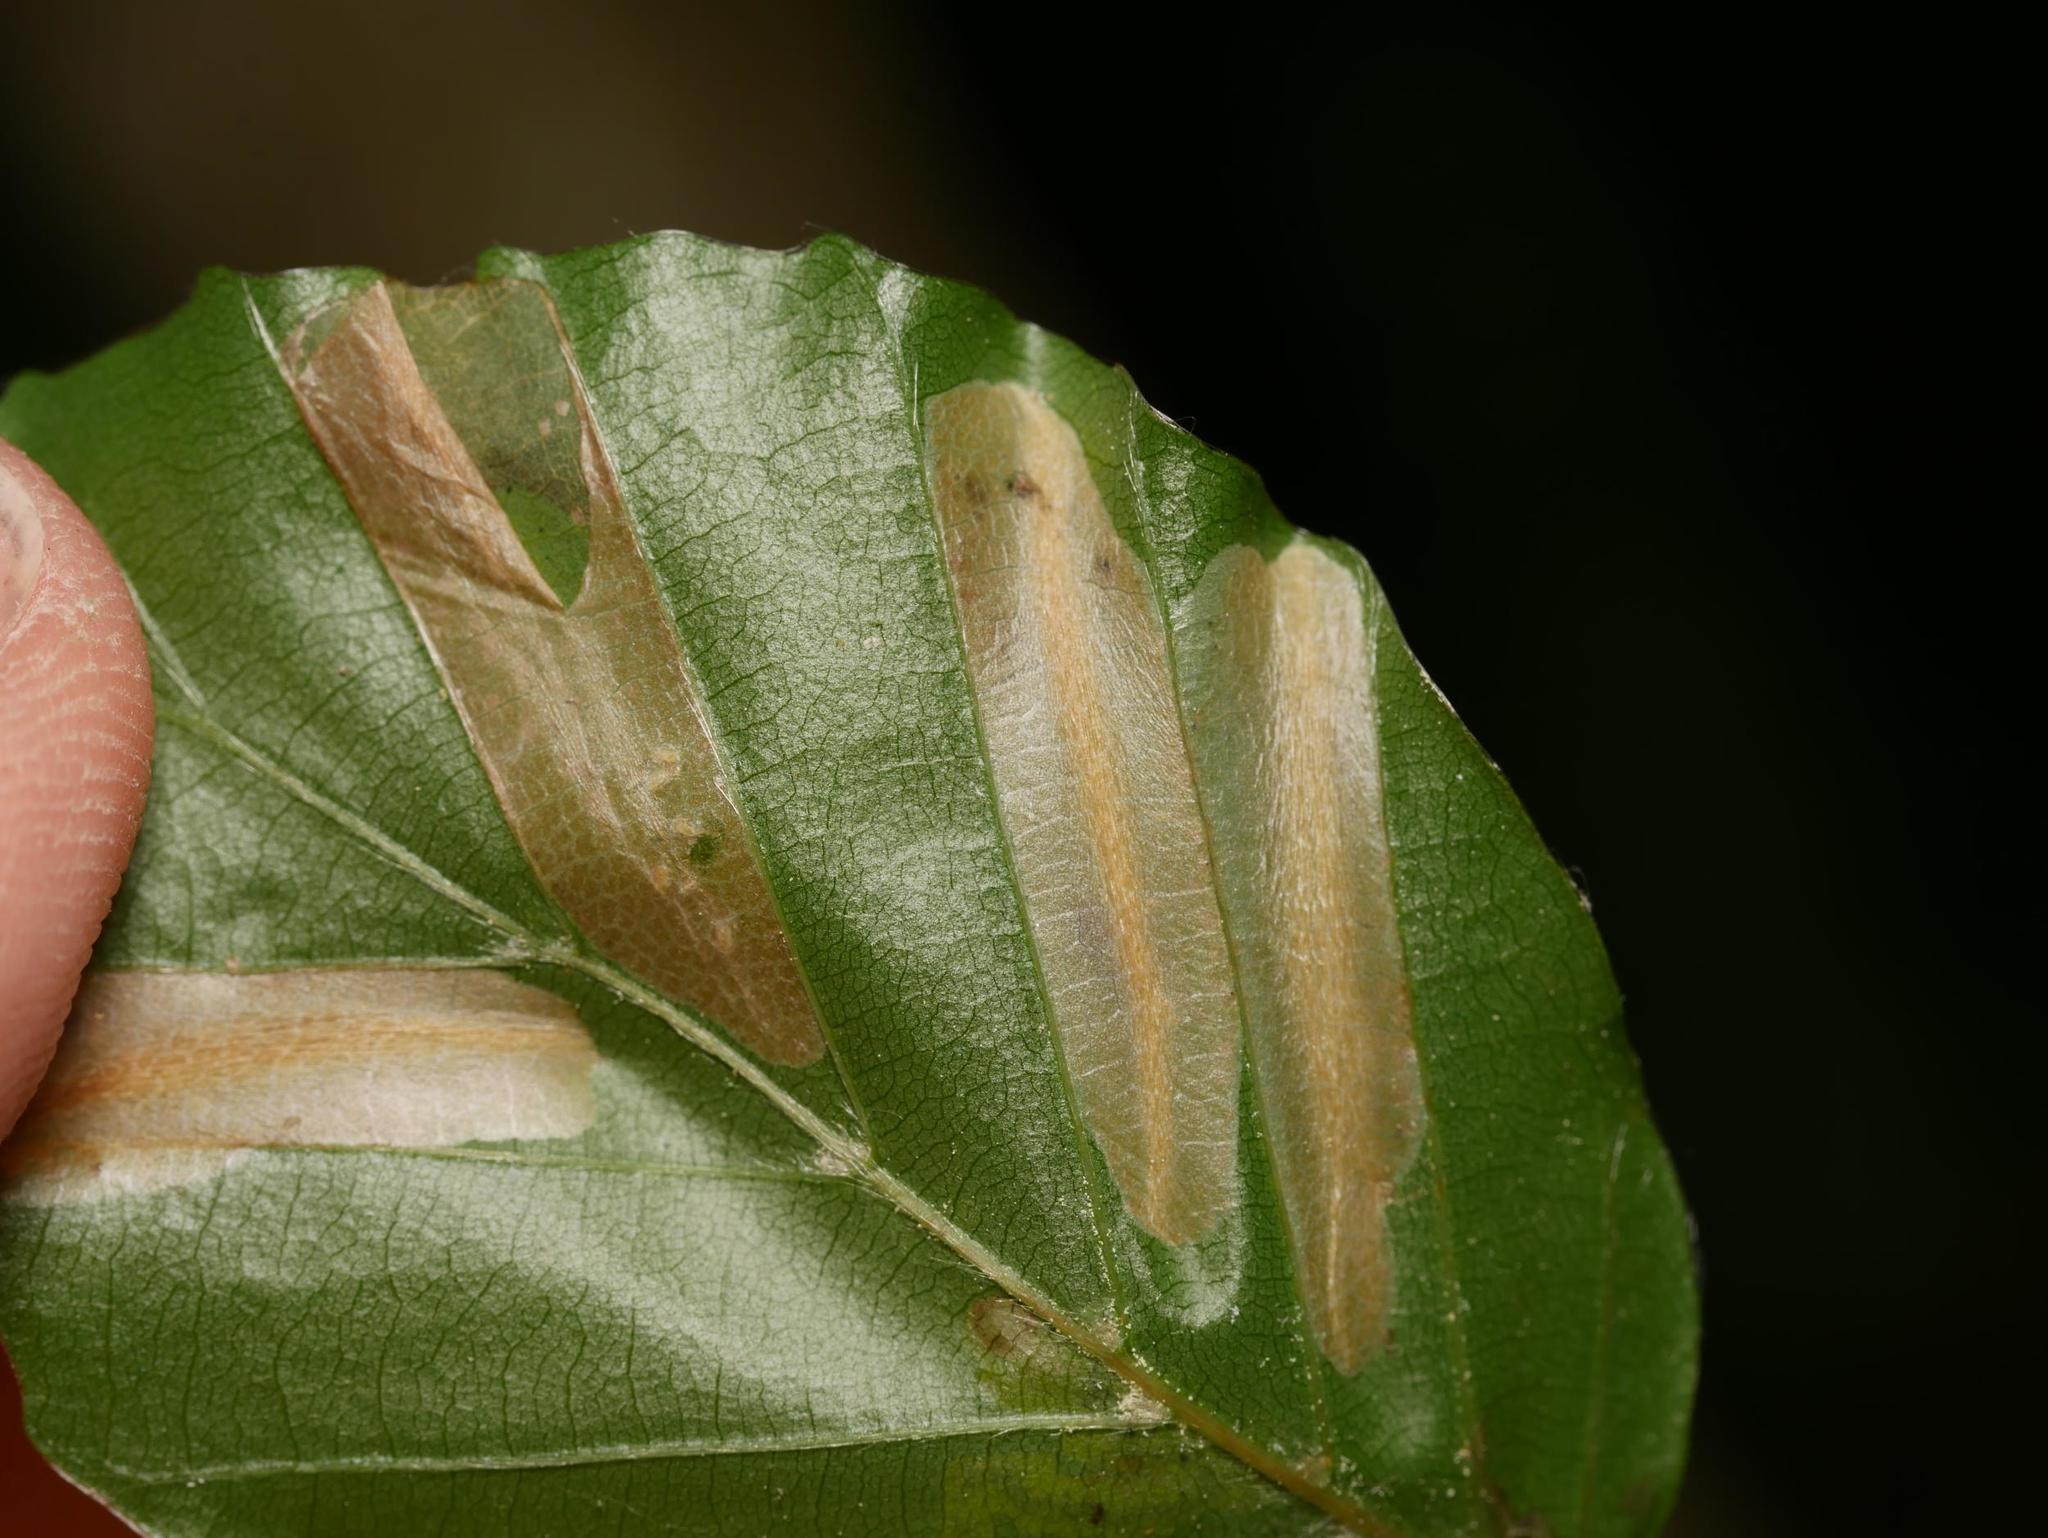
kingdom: Animalia
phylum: Arthropoda
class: Insecta
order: Lepidoptera
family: Gracillariidae
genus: Phyllonorycter
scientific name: Phyllonorycter maestingella
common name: Beech midget
